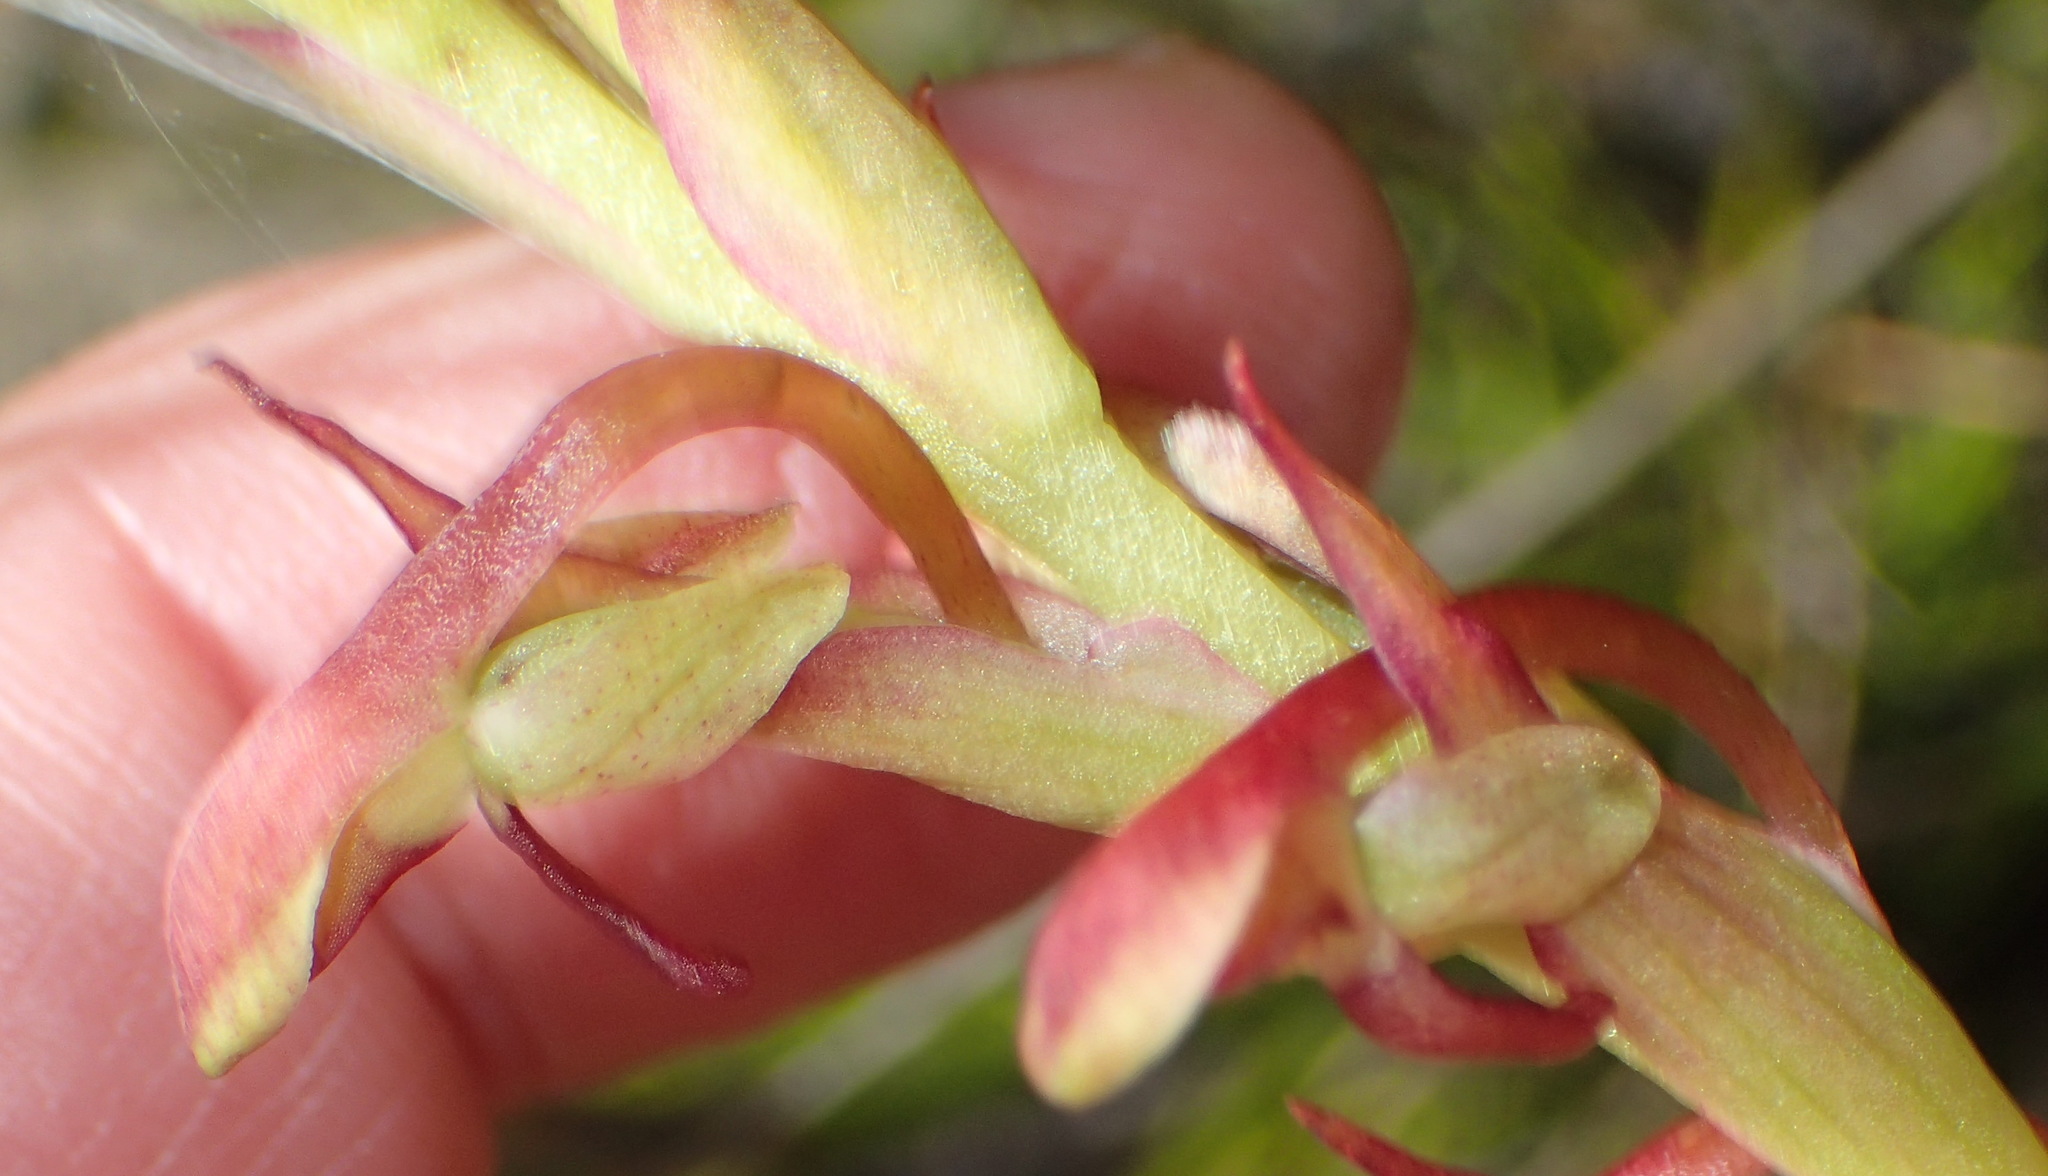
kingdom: Plantae
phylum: Tracheophyta
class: Liliopsida
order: Asparagales
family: Orchidaceae
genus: Disa
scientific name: Disa reticulata
